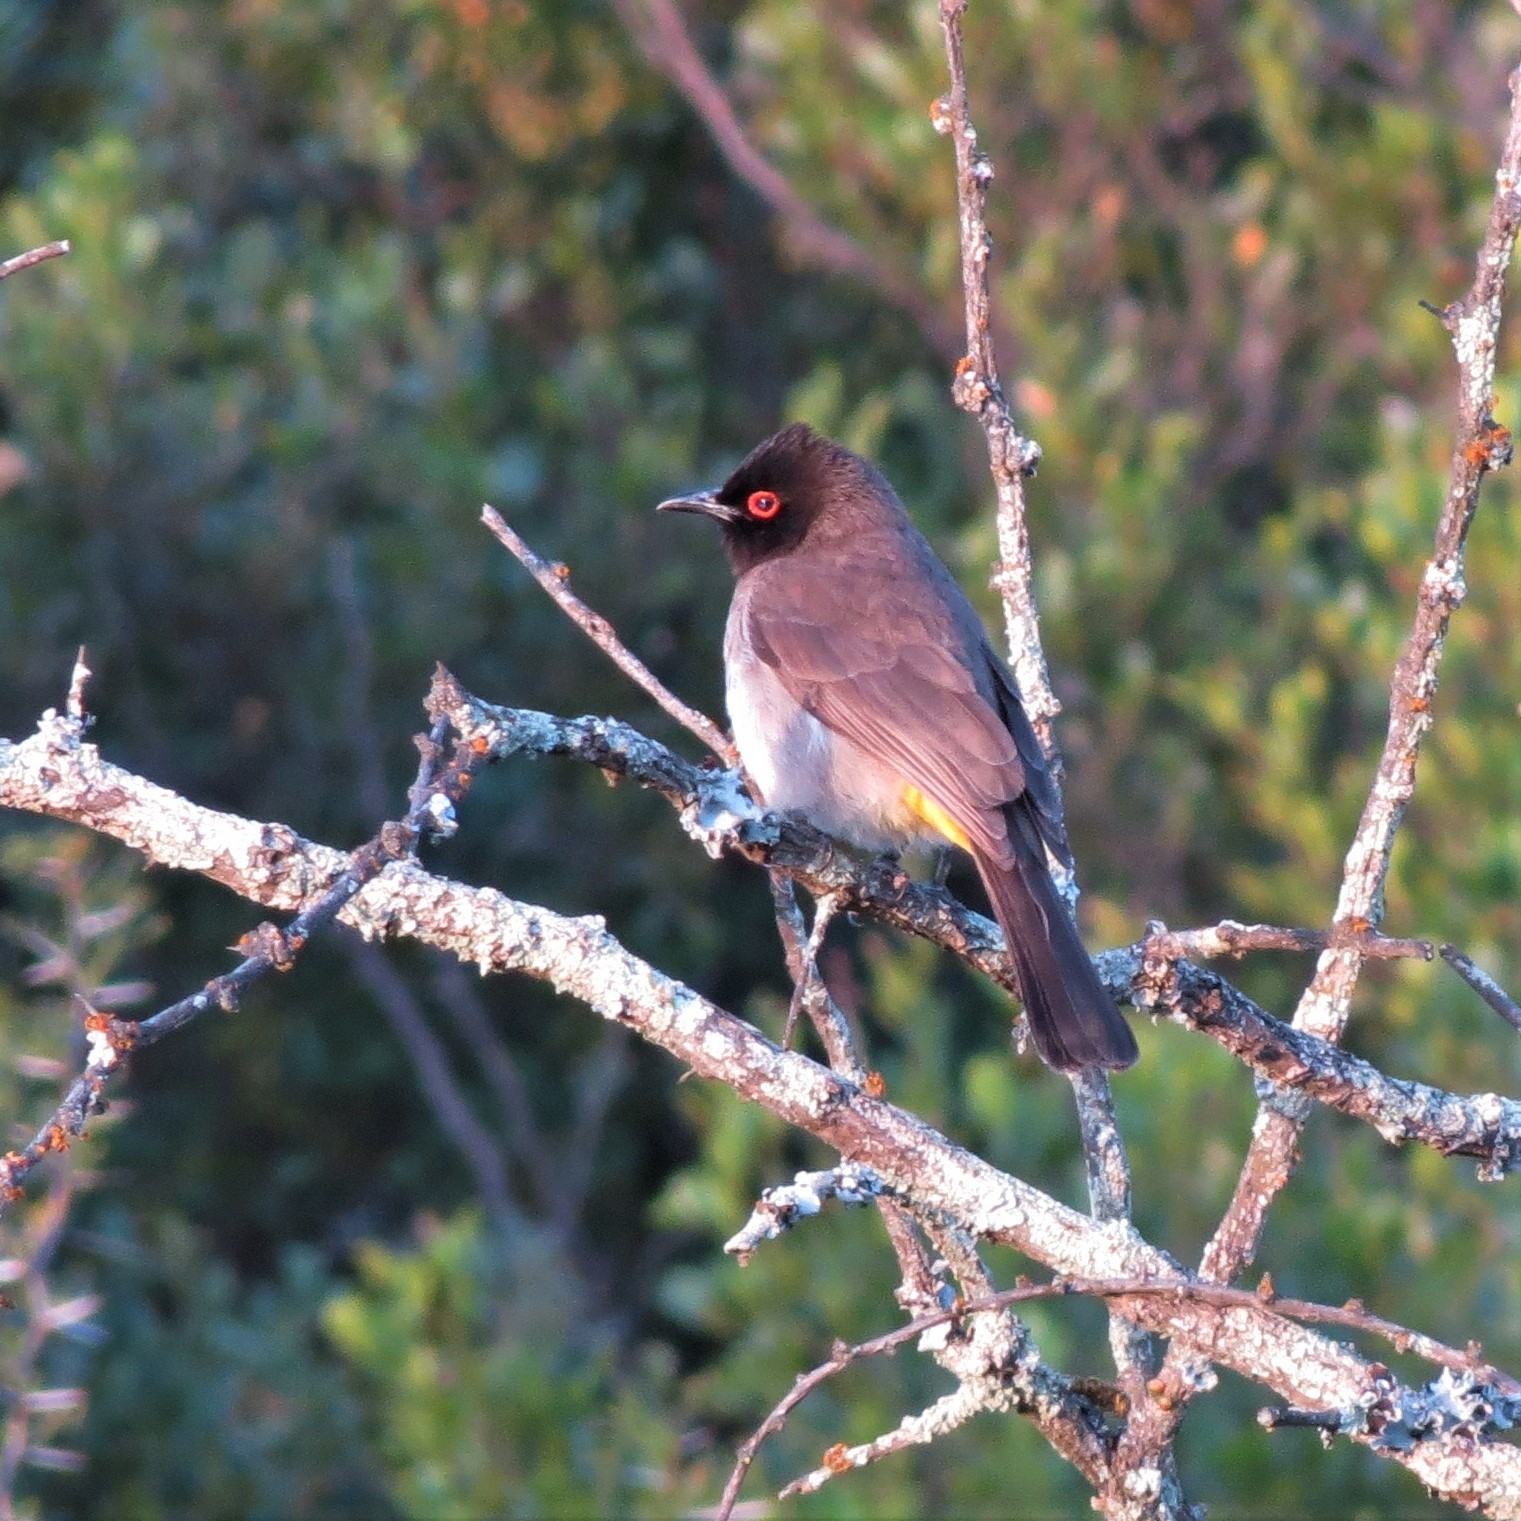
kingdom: Animalia
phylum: Chordata
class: Aves
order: Passeriformes
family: Pycnonotidae
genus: Pycnonotus
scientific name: Pycnonotus nigricans
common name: African red-eyed bulbul
